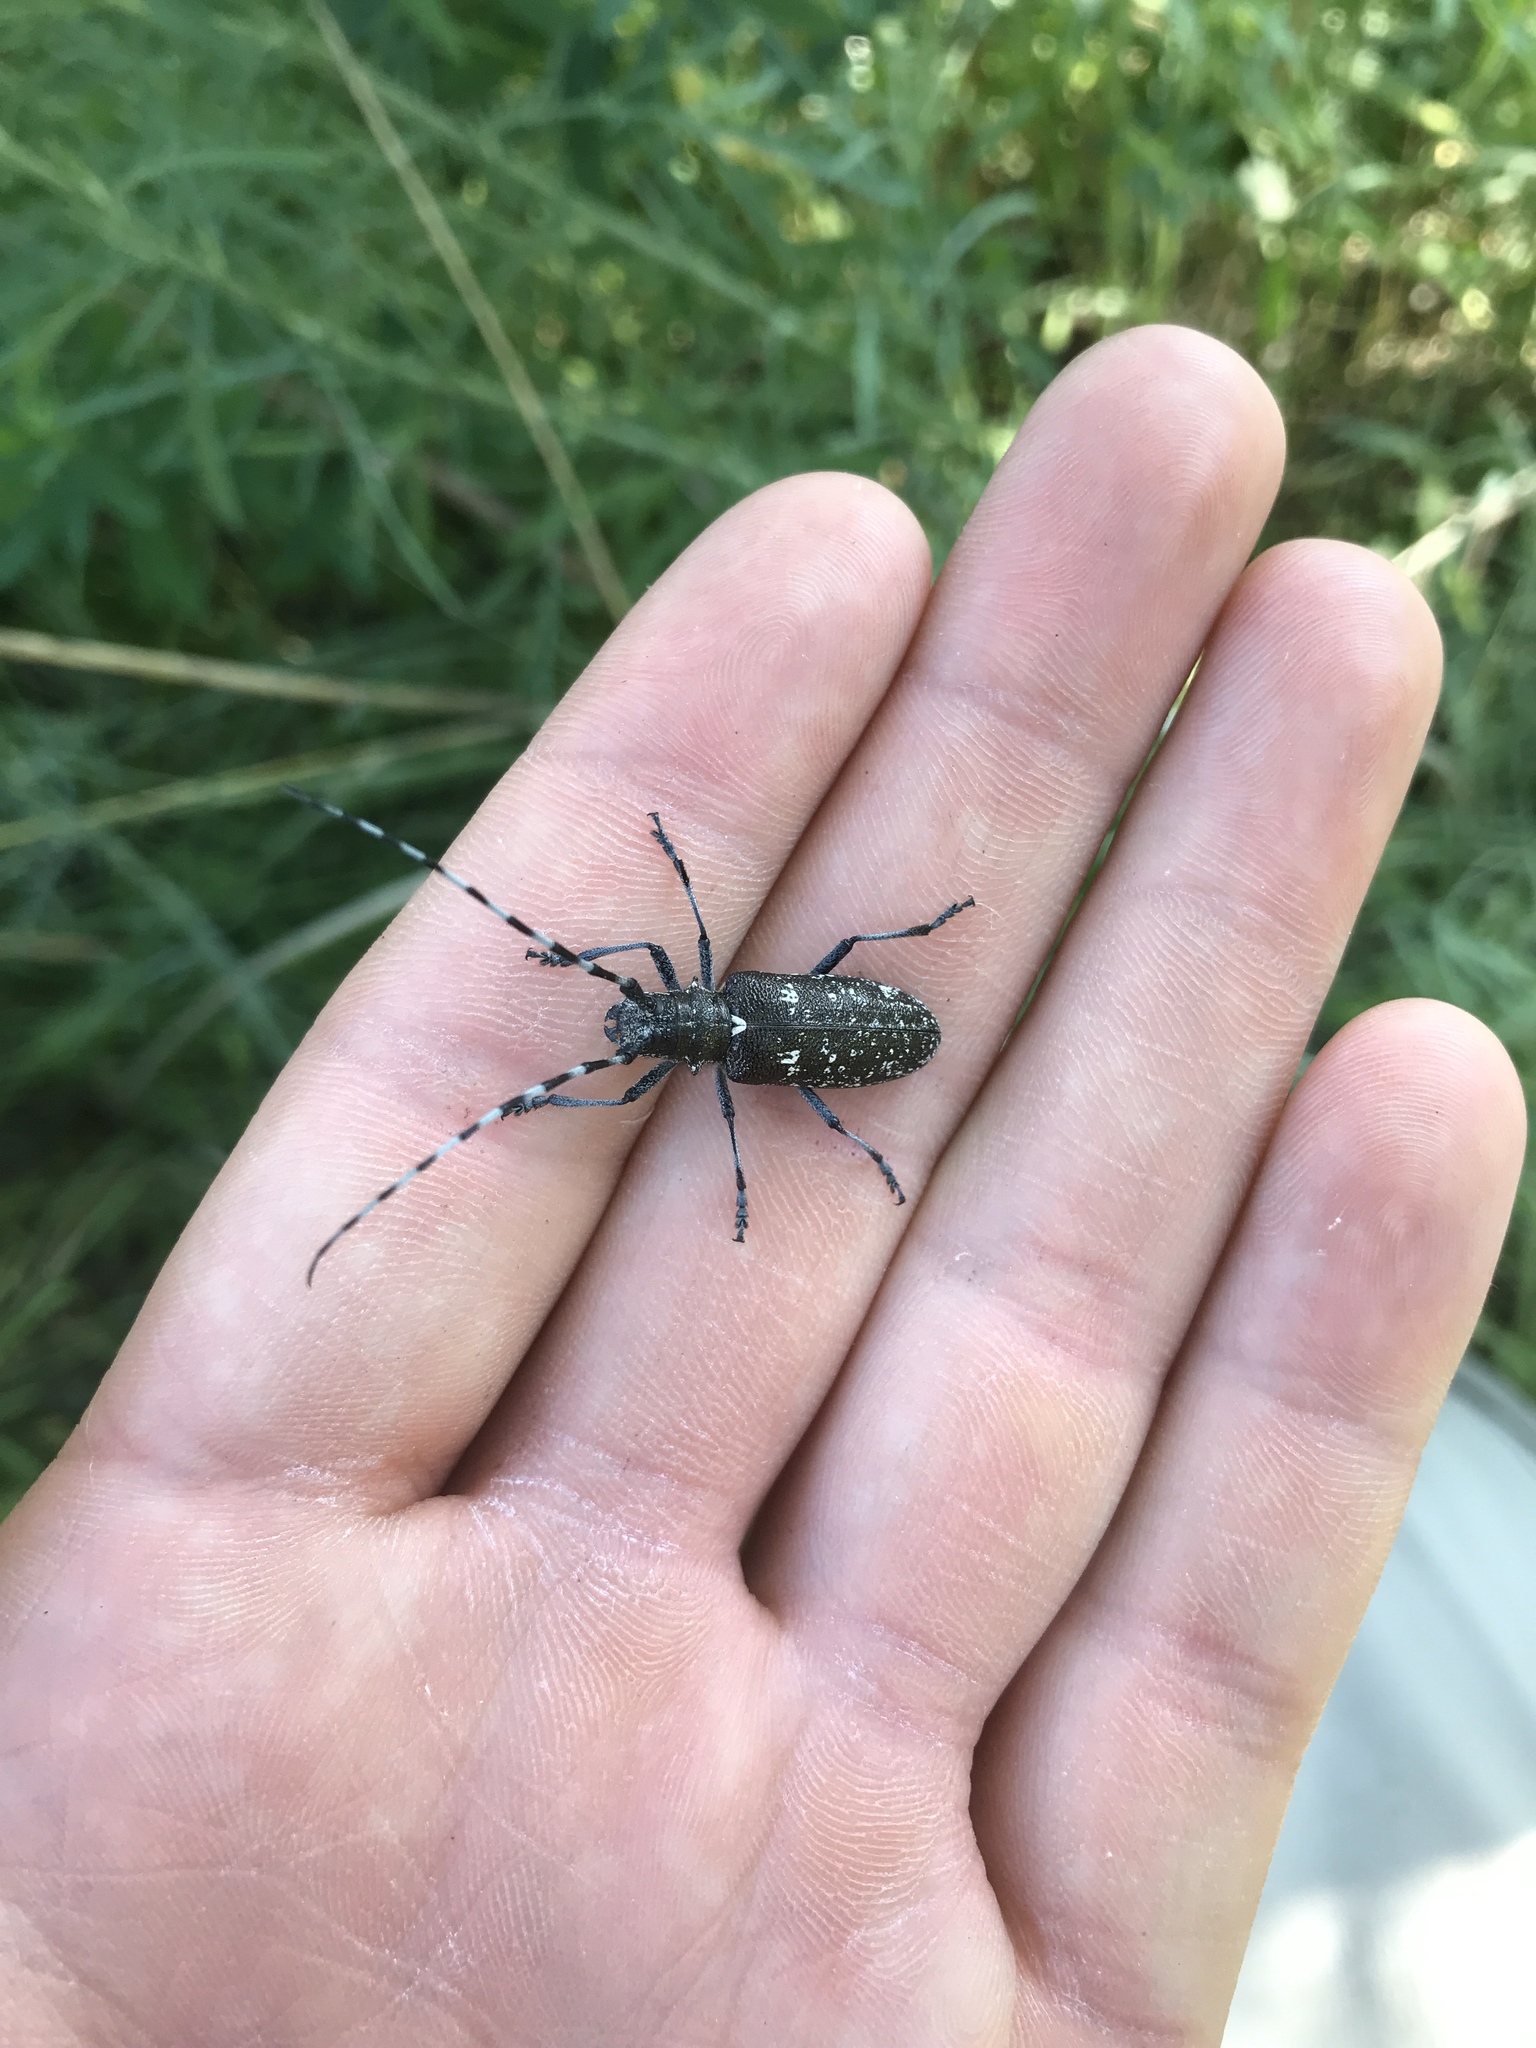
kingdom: Animalia
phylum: Arthropoda
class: Insecta
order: Coleoptera
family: Cerambycidae
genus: Monochamus
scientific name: Monochamus scutellatus
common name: White-spotted sawyer beetle
